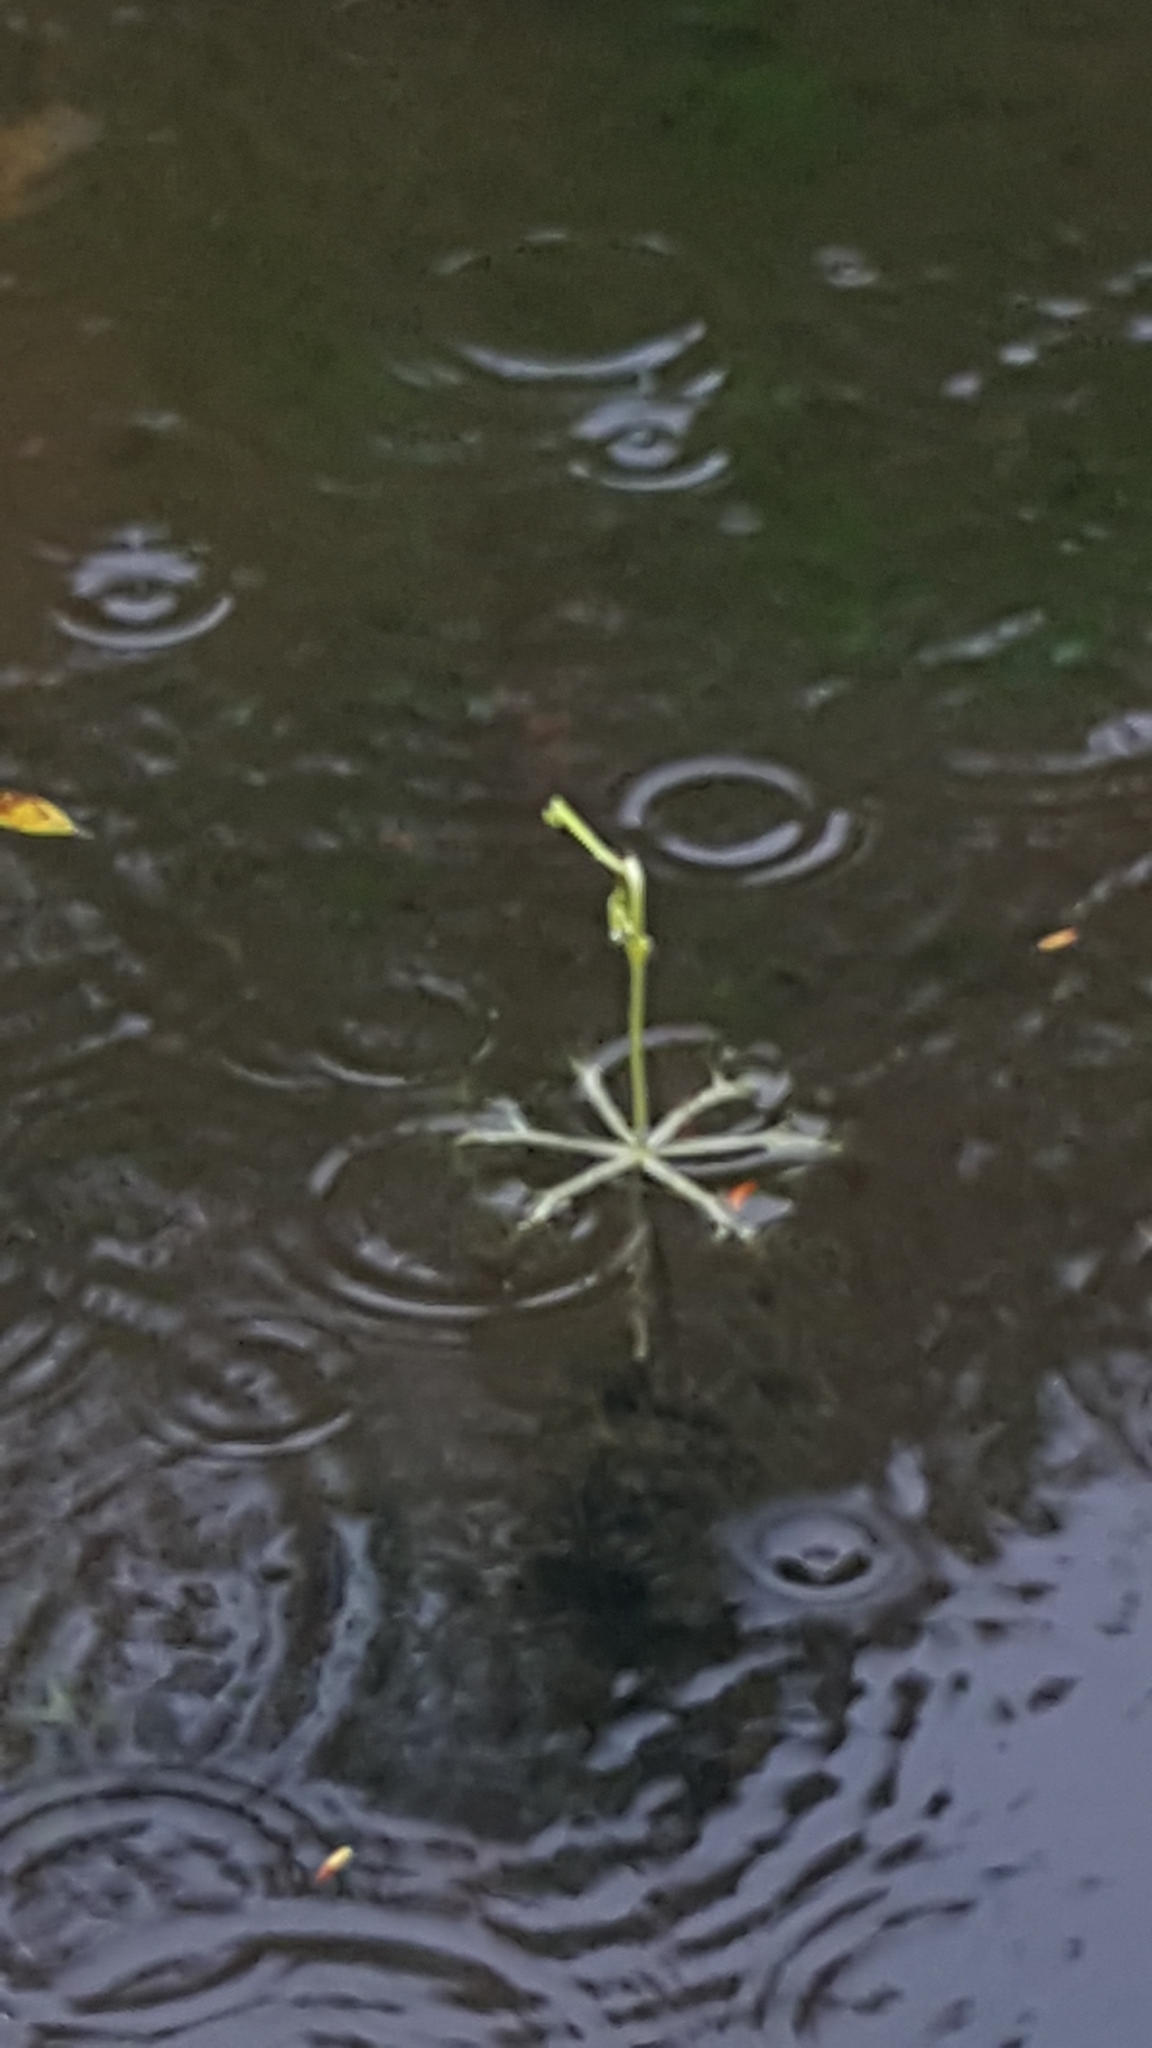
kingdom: Plantae
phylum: Tracheophyta
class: Magnoliopsida
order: Lamiales
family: Lentibulariaceae
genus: Utricularia
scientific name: Utricularia radiata
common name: Floating bladderwort
